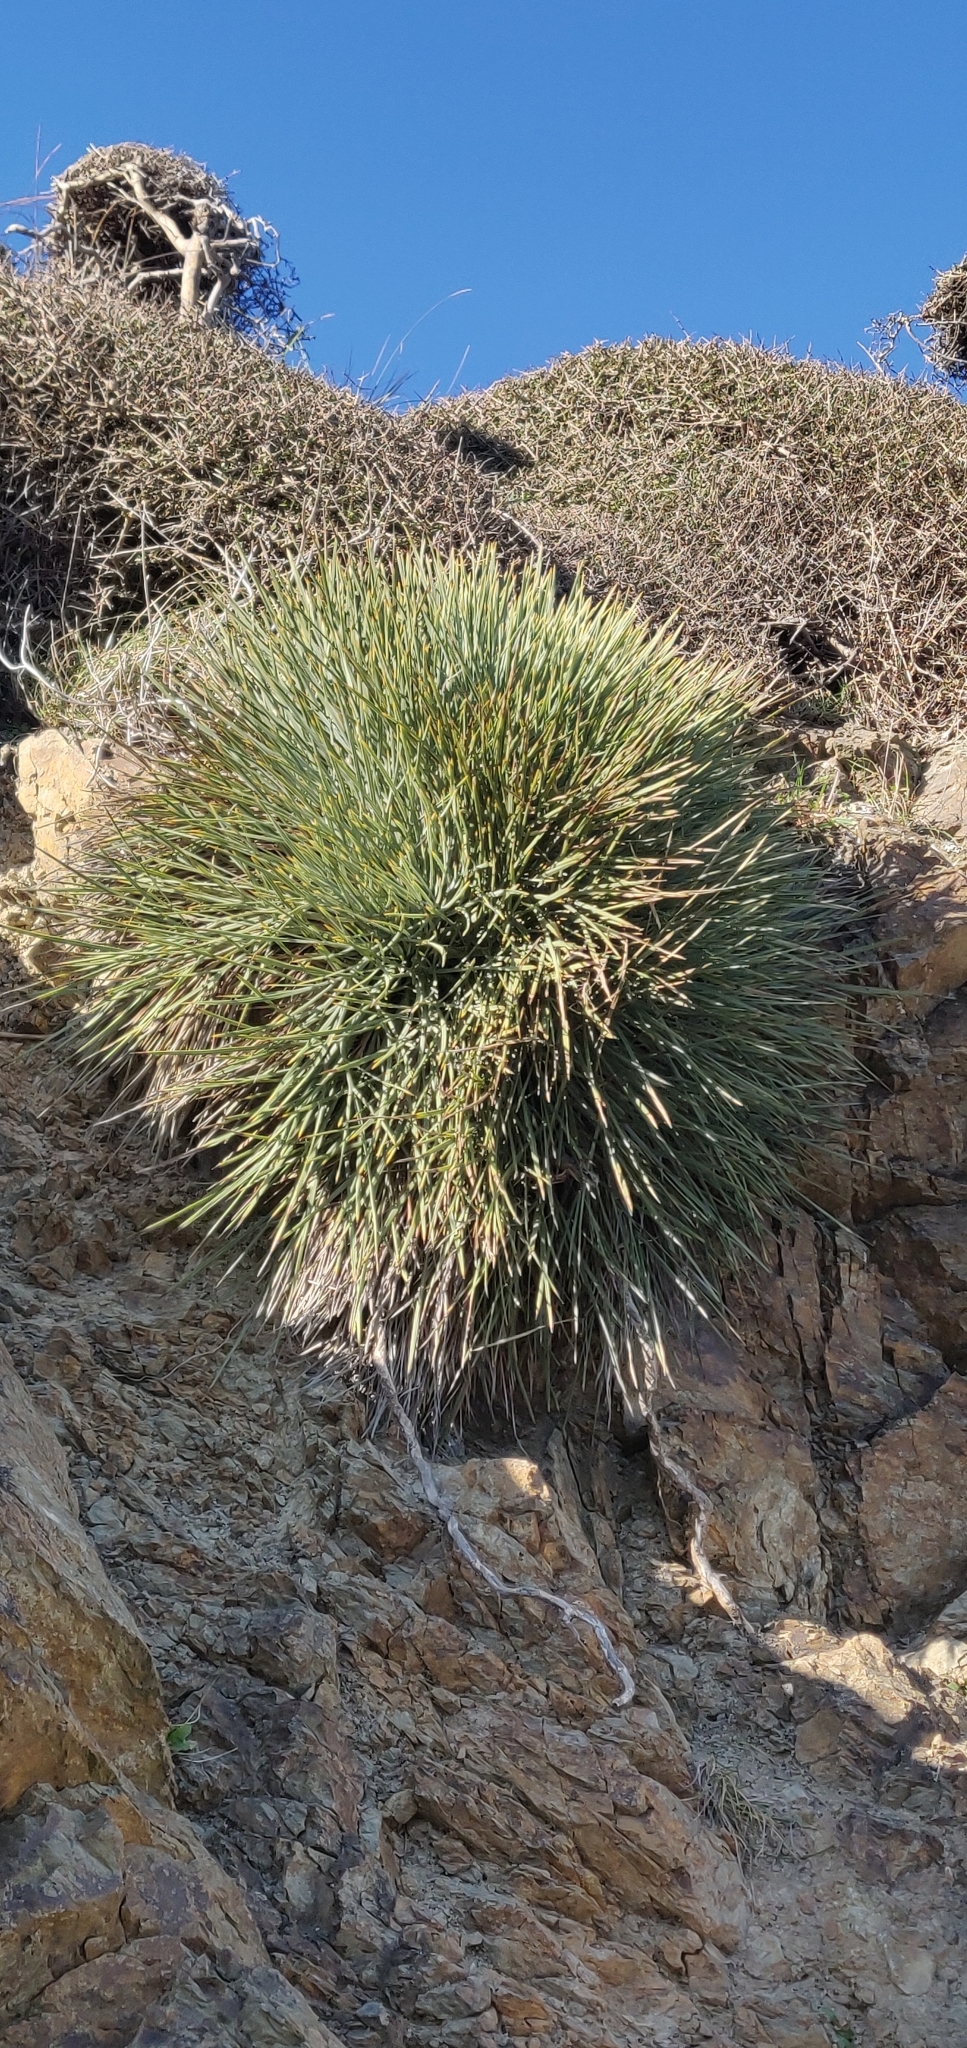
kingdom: Plantae
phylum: Tracheophyta
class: Magnoliopsida
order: Apiales
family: Apiaceae
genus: Aciphylla
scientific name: Aciphylla squarrosa
